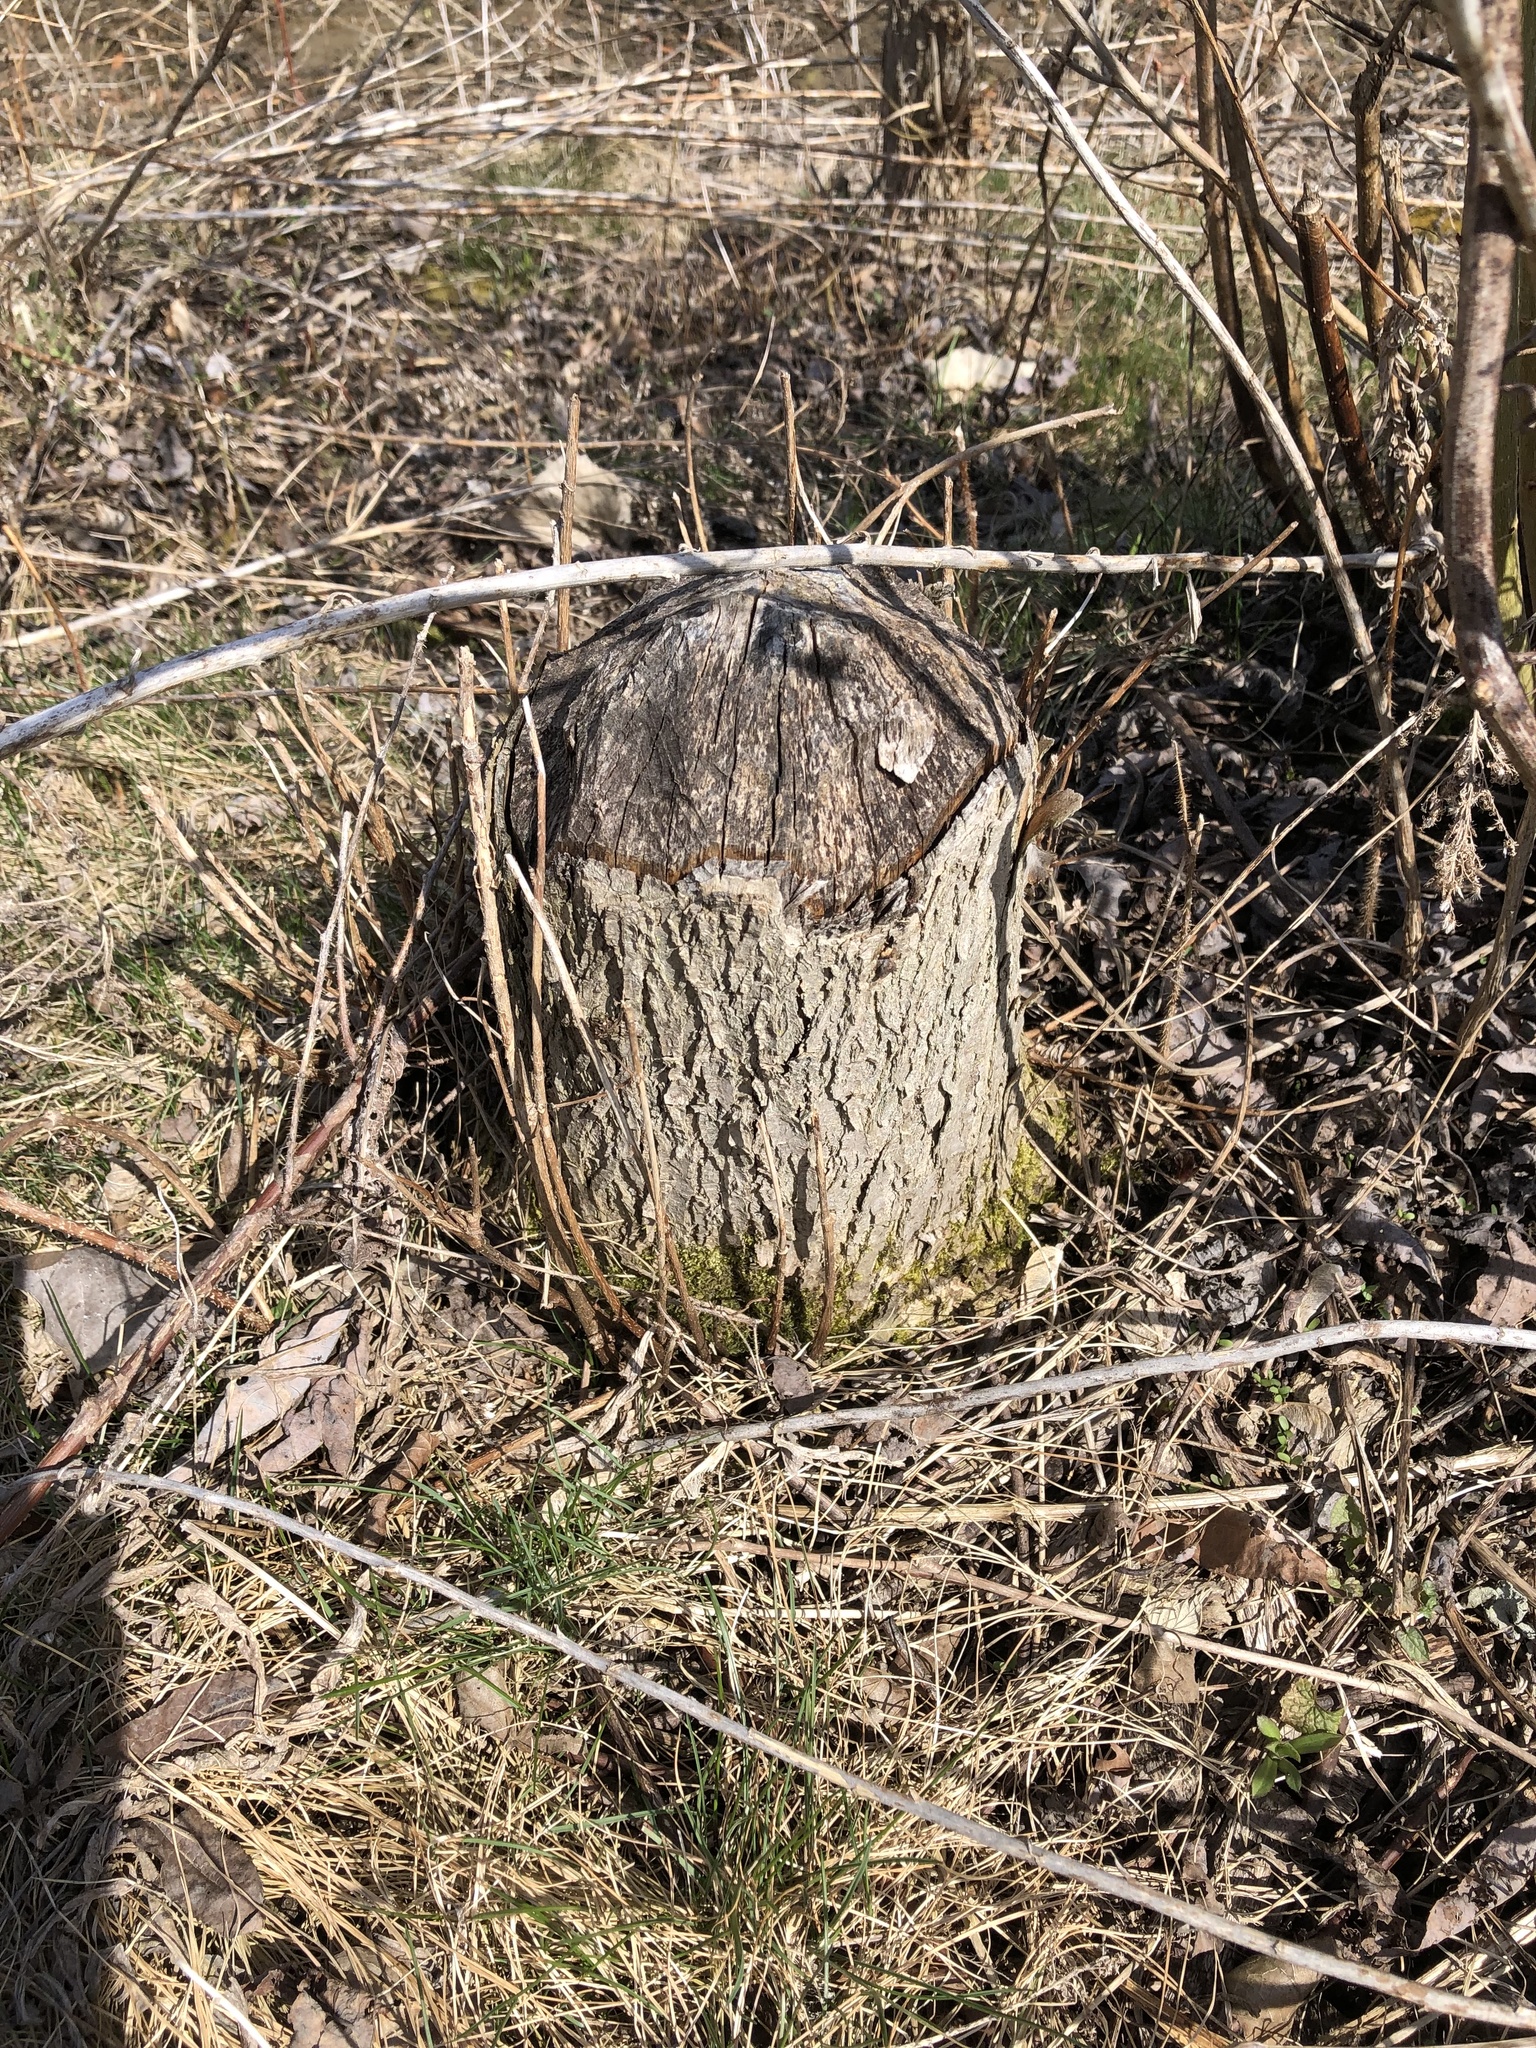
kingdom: Animalia
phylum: Chordata
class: Mammalia
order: Rodentia
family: Castoridae
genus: Castor
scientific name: Castor canadensis
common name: American beaver
